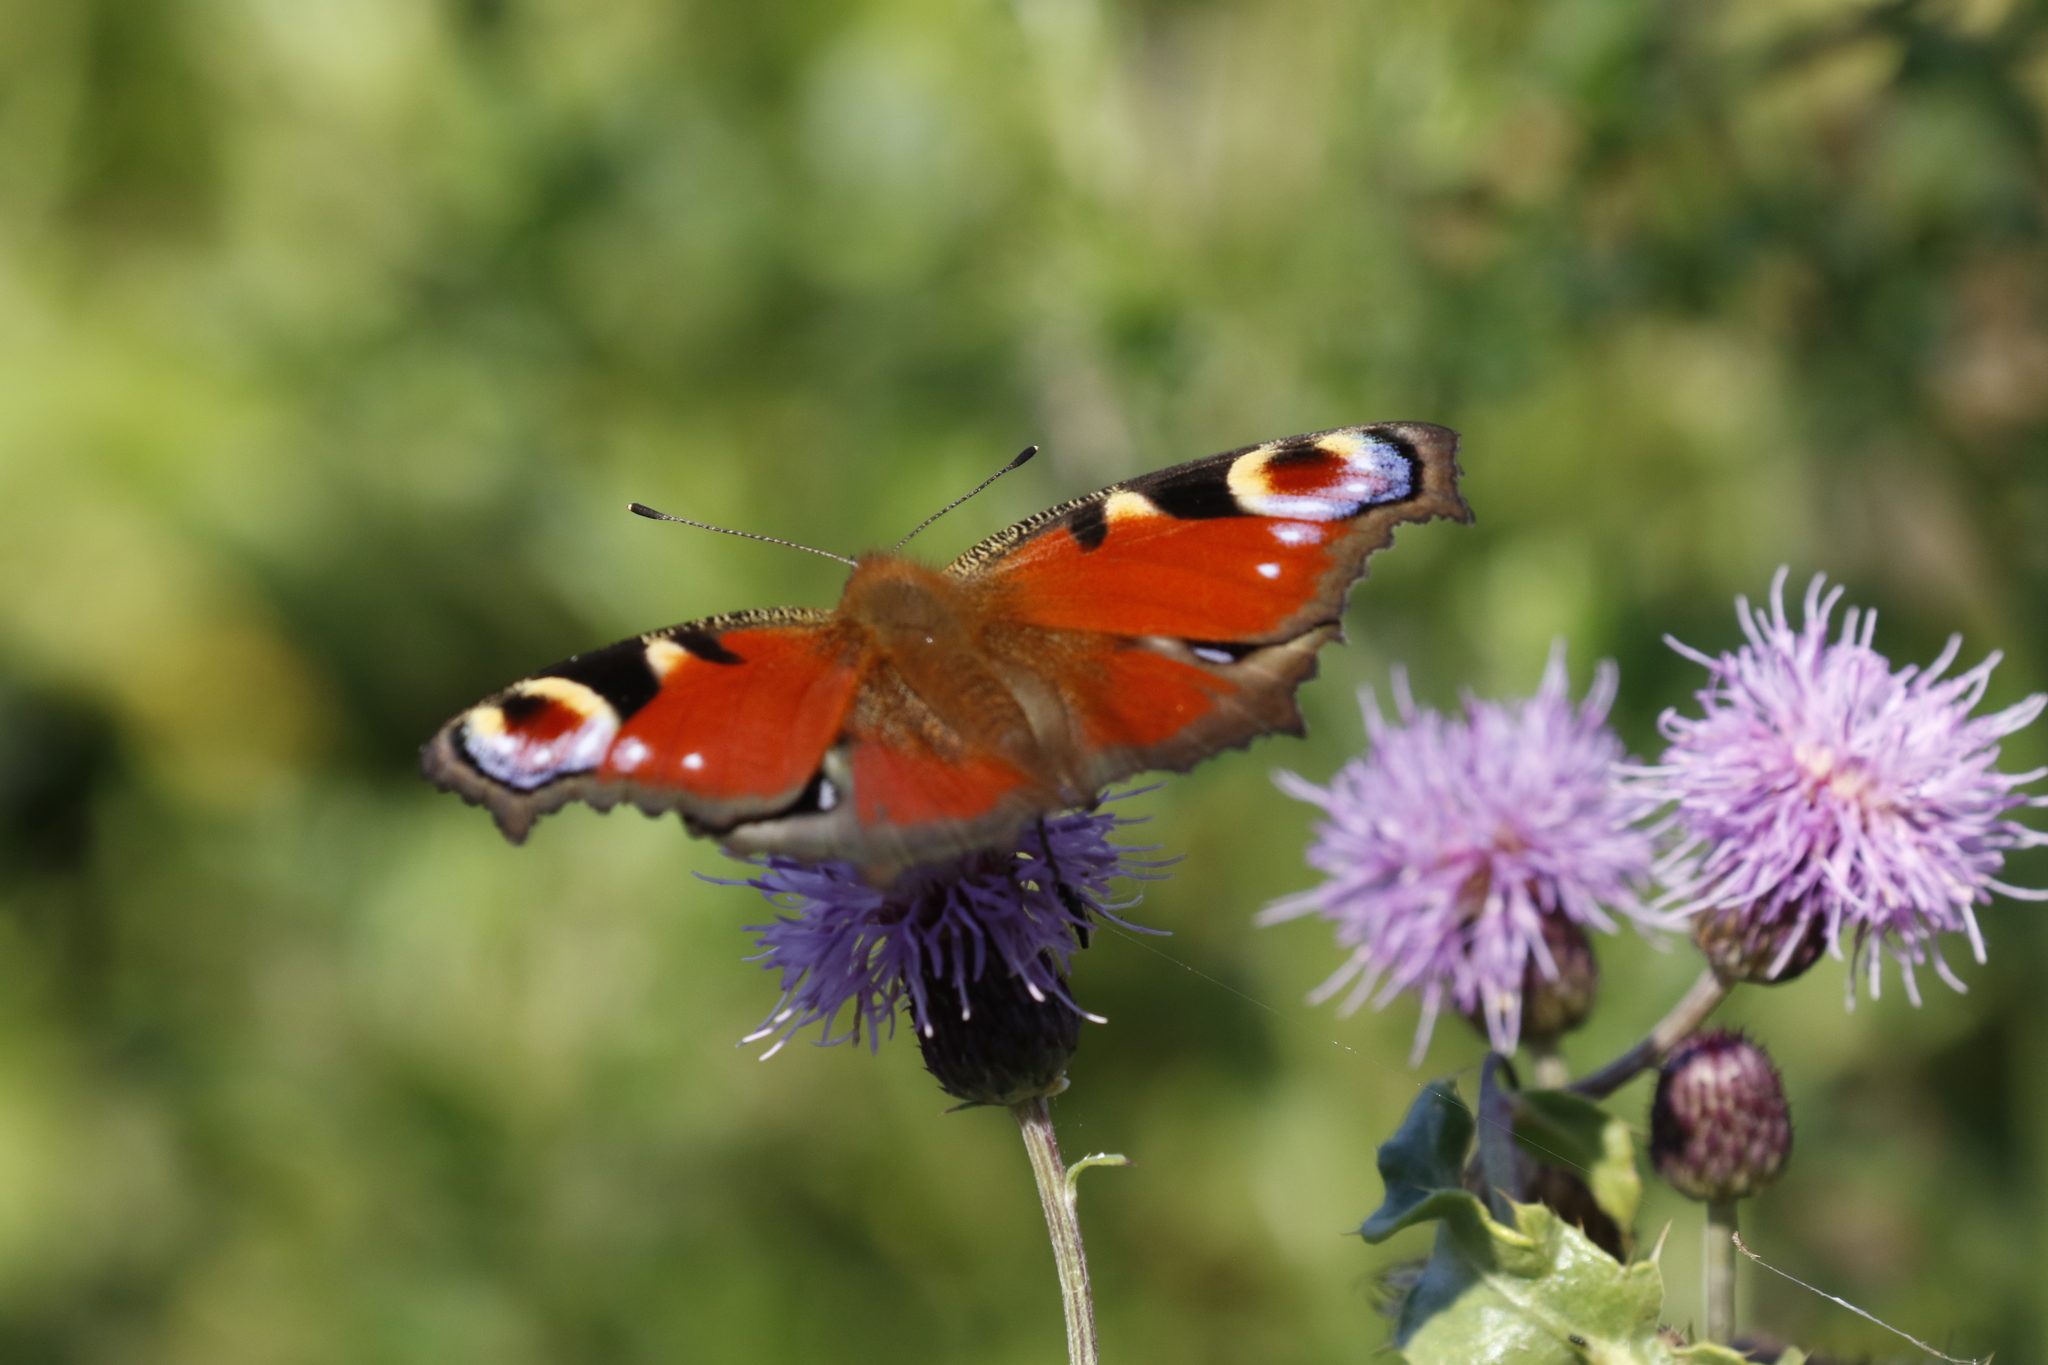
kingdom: Animalia
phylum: Arthropoda
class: Insecta
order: Lepidoptera
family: Nymphalidae
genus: Aglais
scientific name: Aglais io
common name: Peacock
